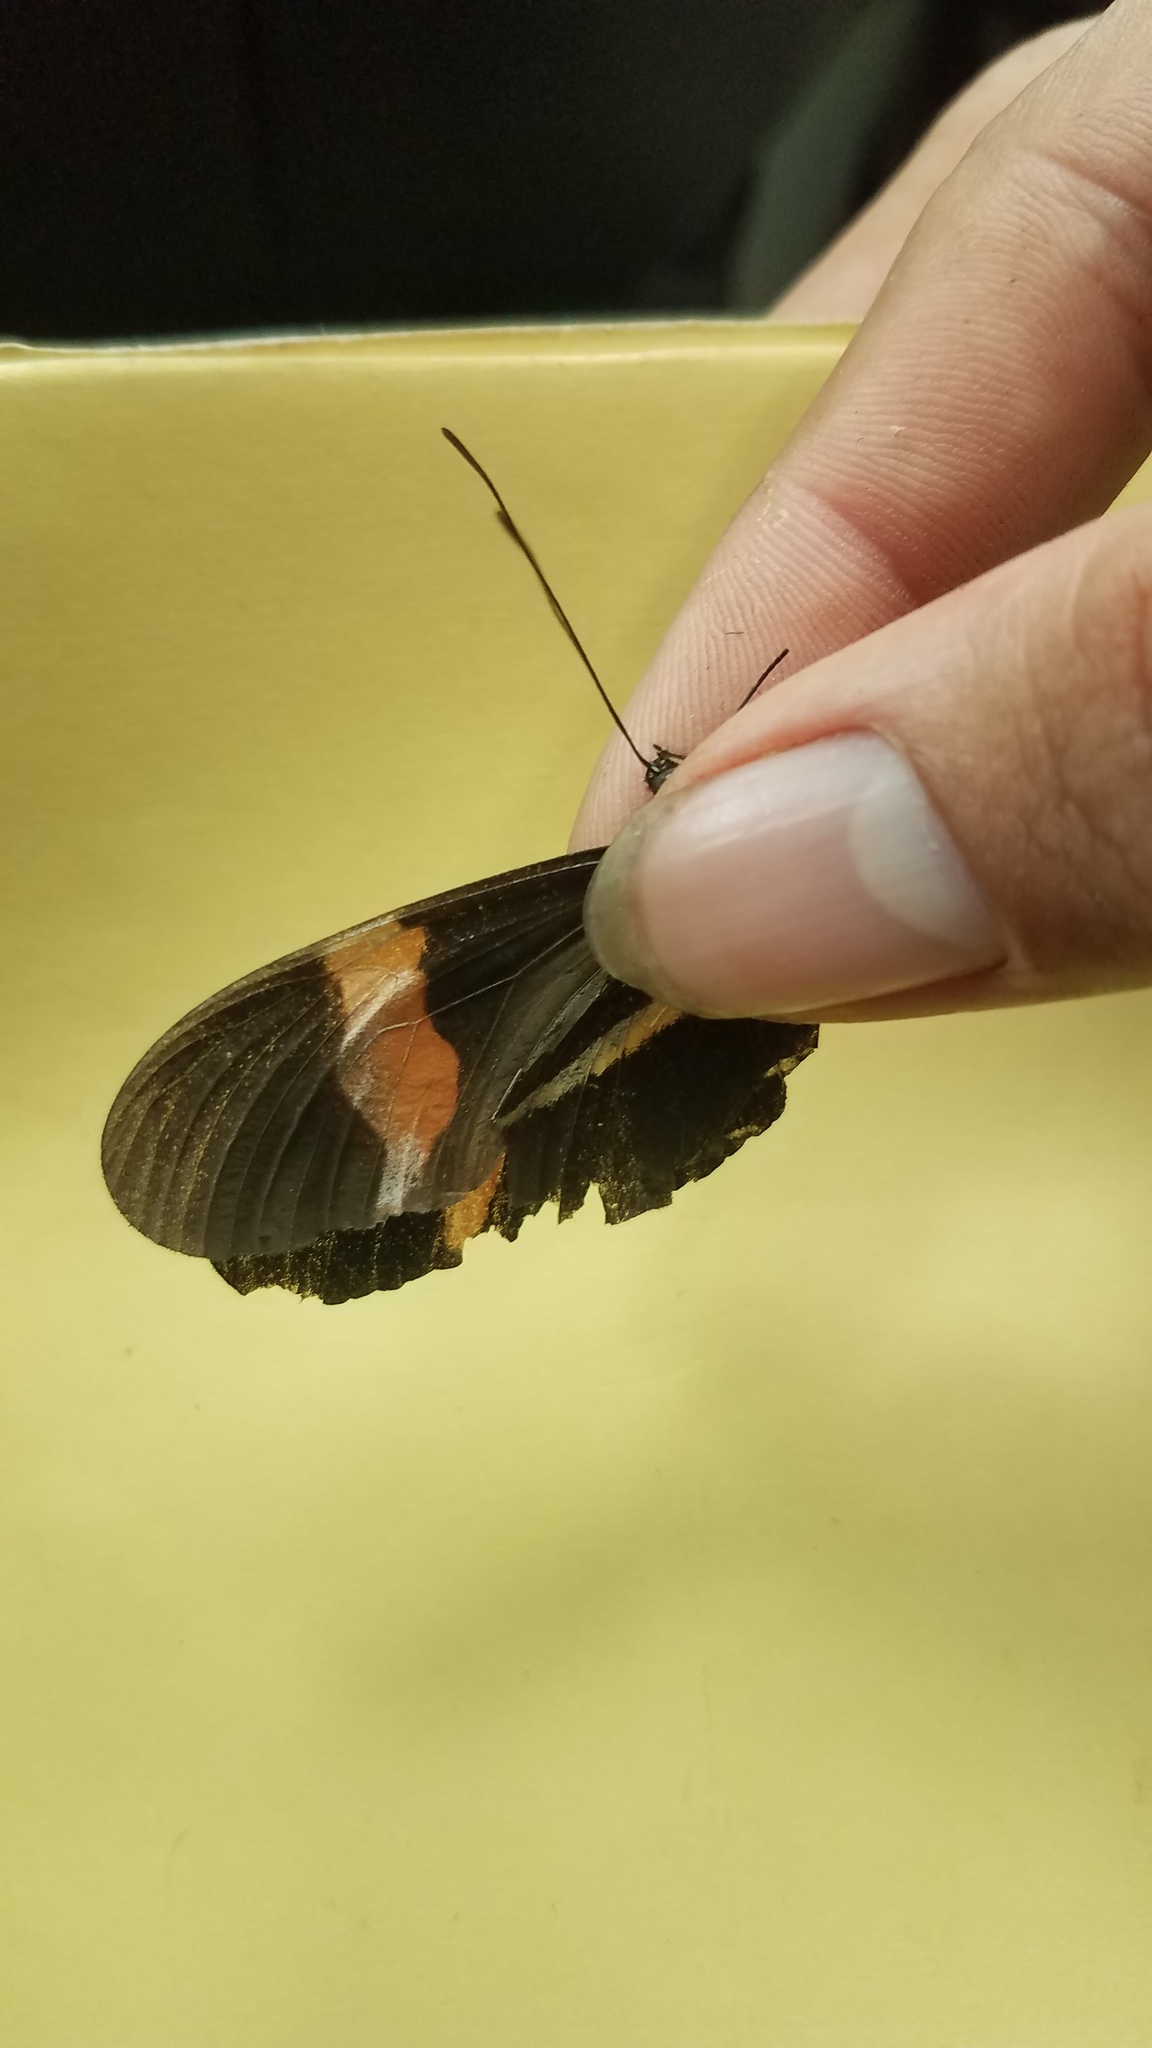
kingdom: Animalia
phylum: Arthropoda
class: Insecta
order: Lepidoptera
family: Nymphalidae
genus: Tirumala
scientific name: Tirumala petiverana
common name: Blue monarch
